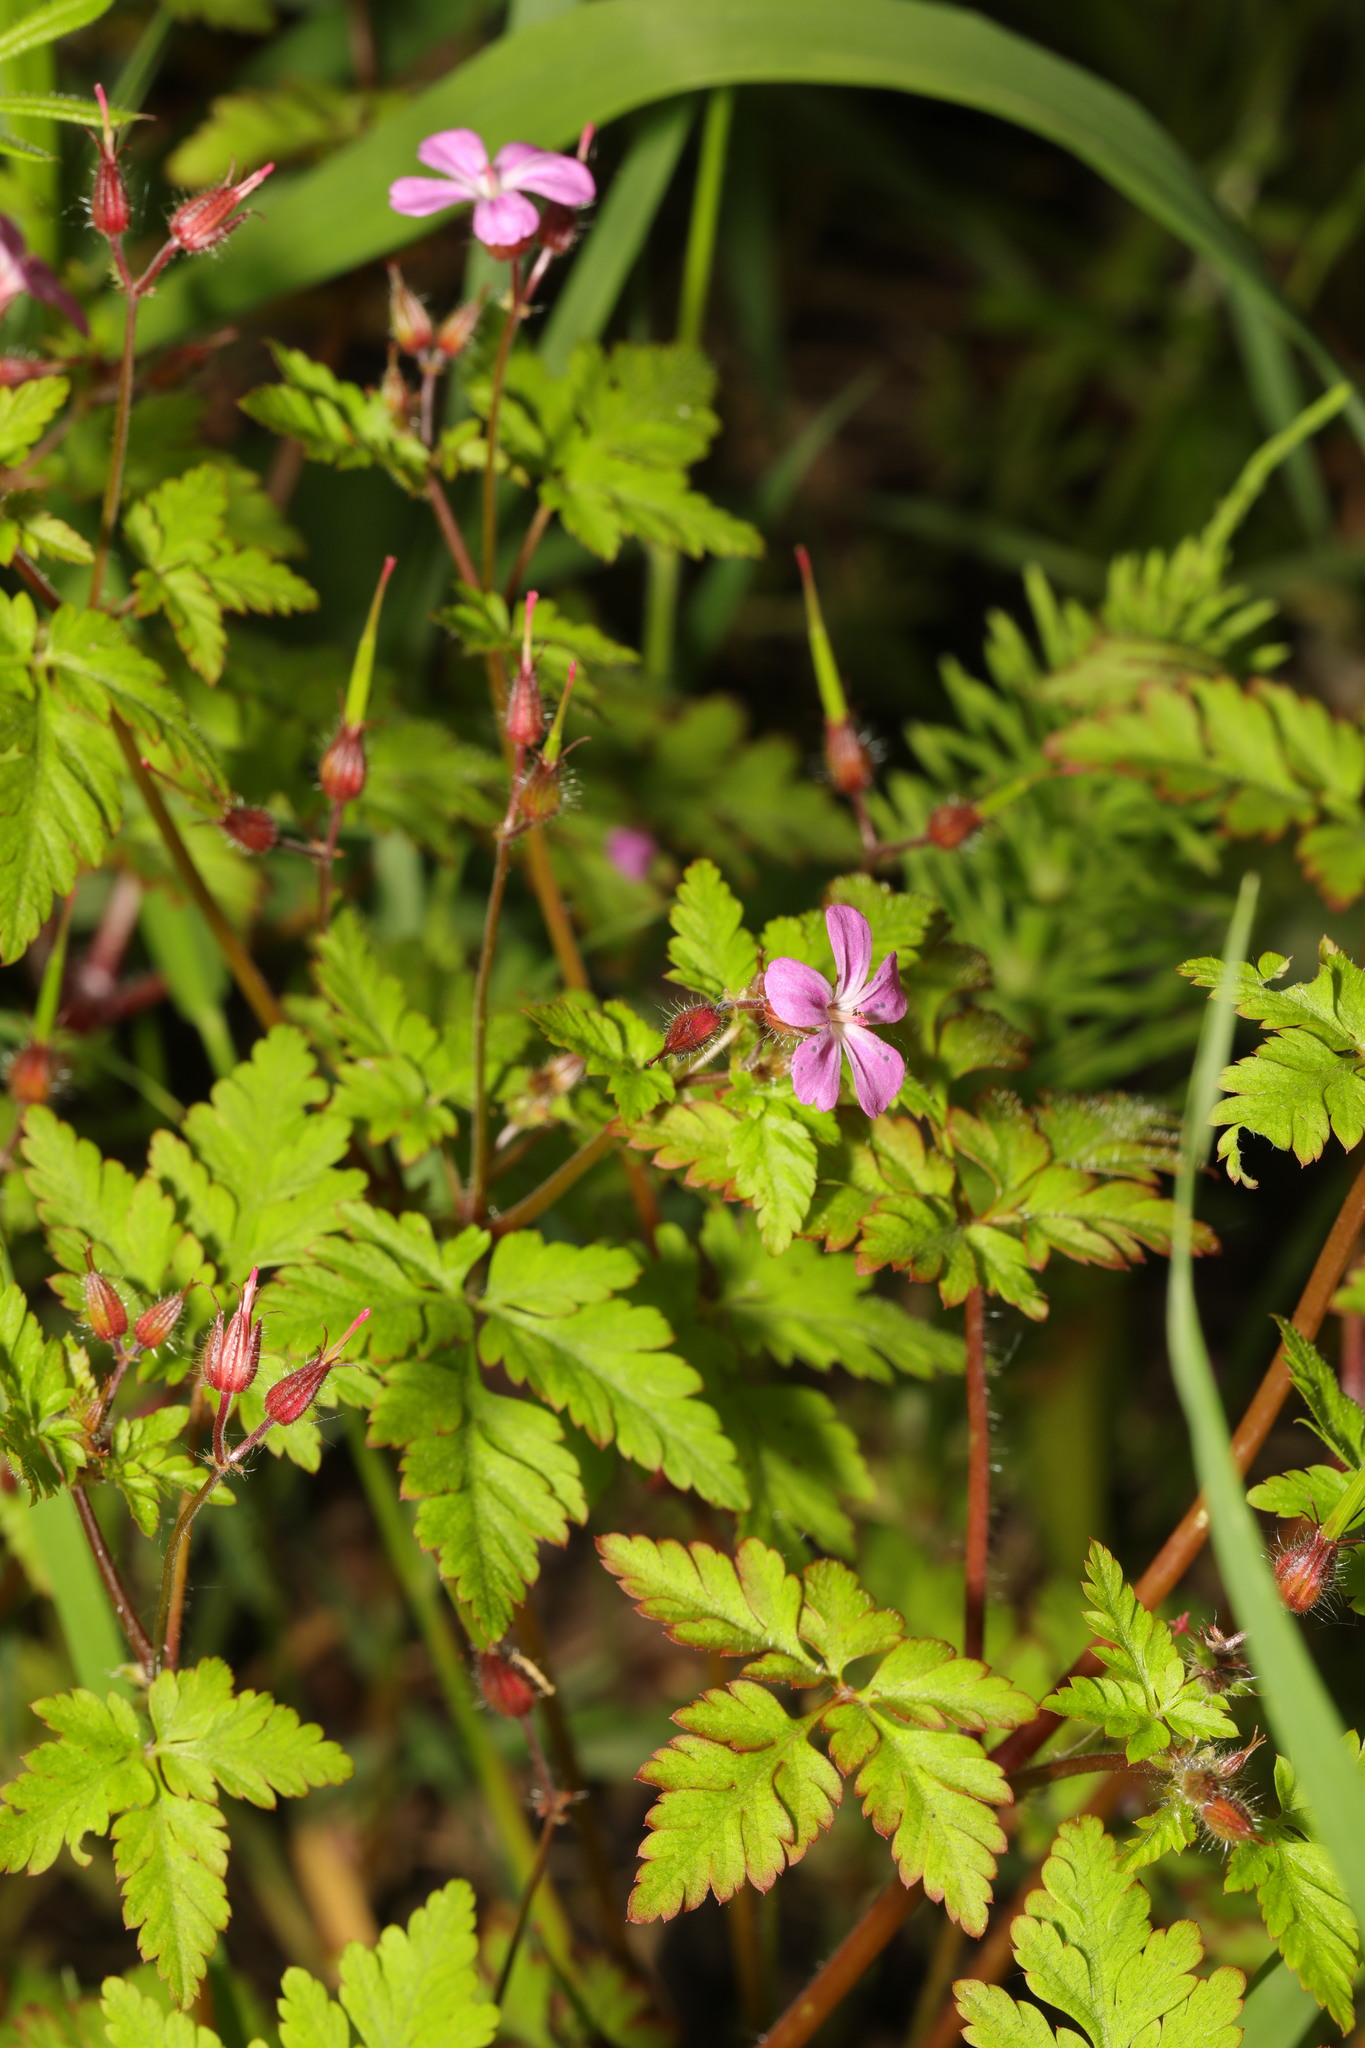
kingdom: Plantae
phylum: Tracheophyta
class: Magnoliopsida
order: Geraniales
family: Geraniaceae
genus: Geranium
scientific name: Geranium robertianum
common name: Herb-robert
